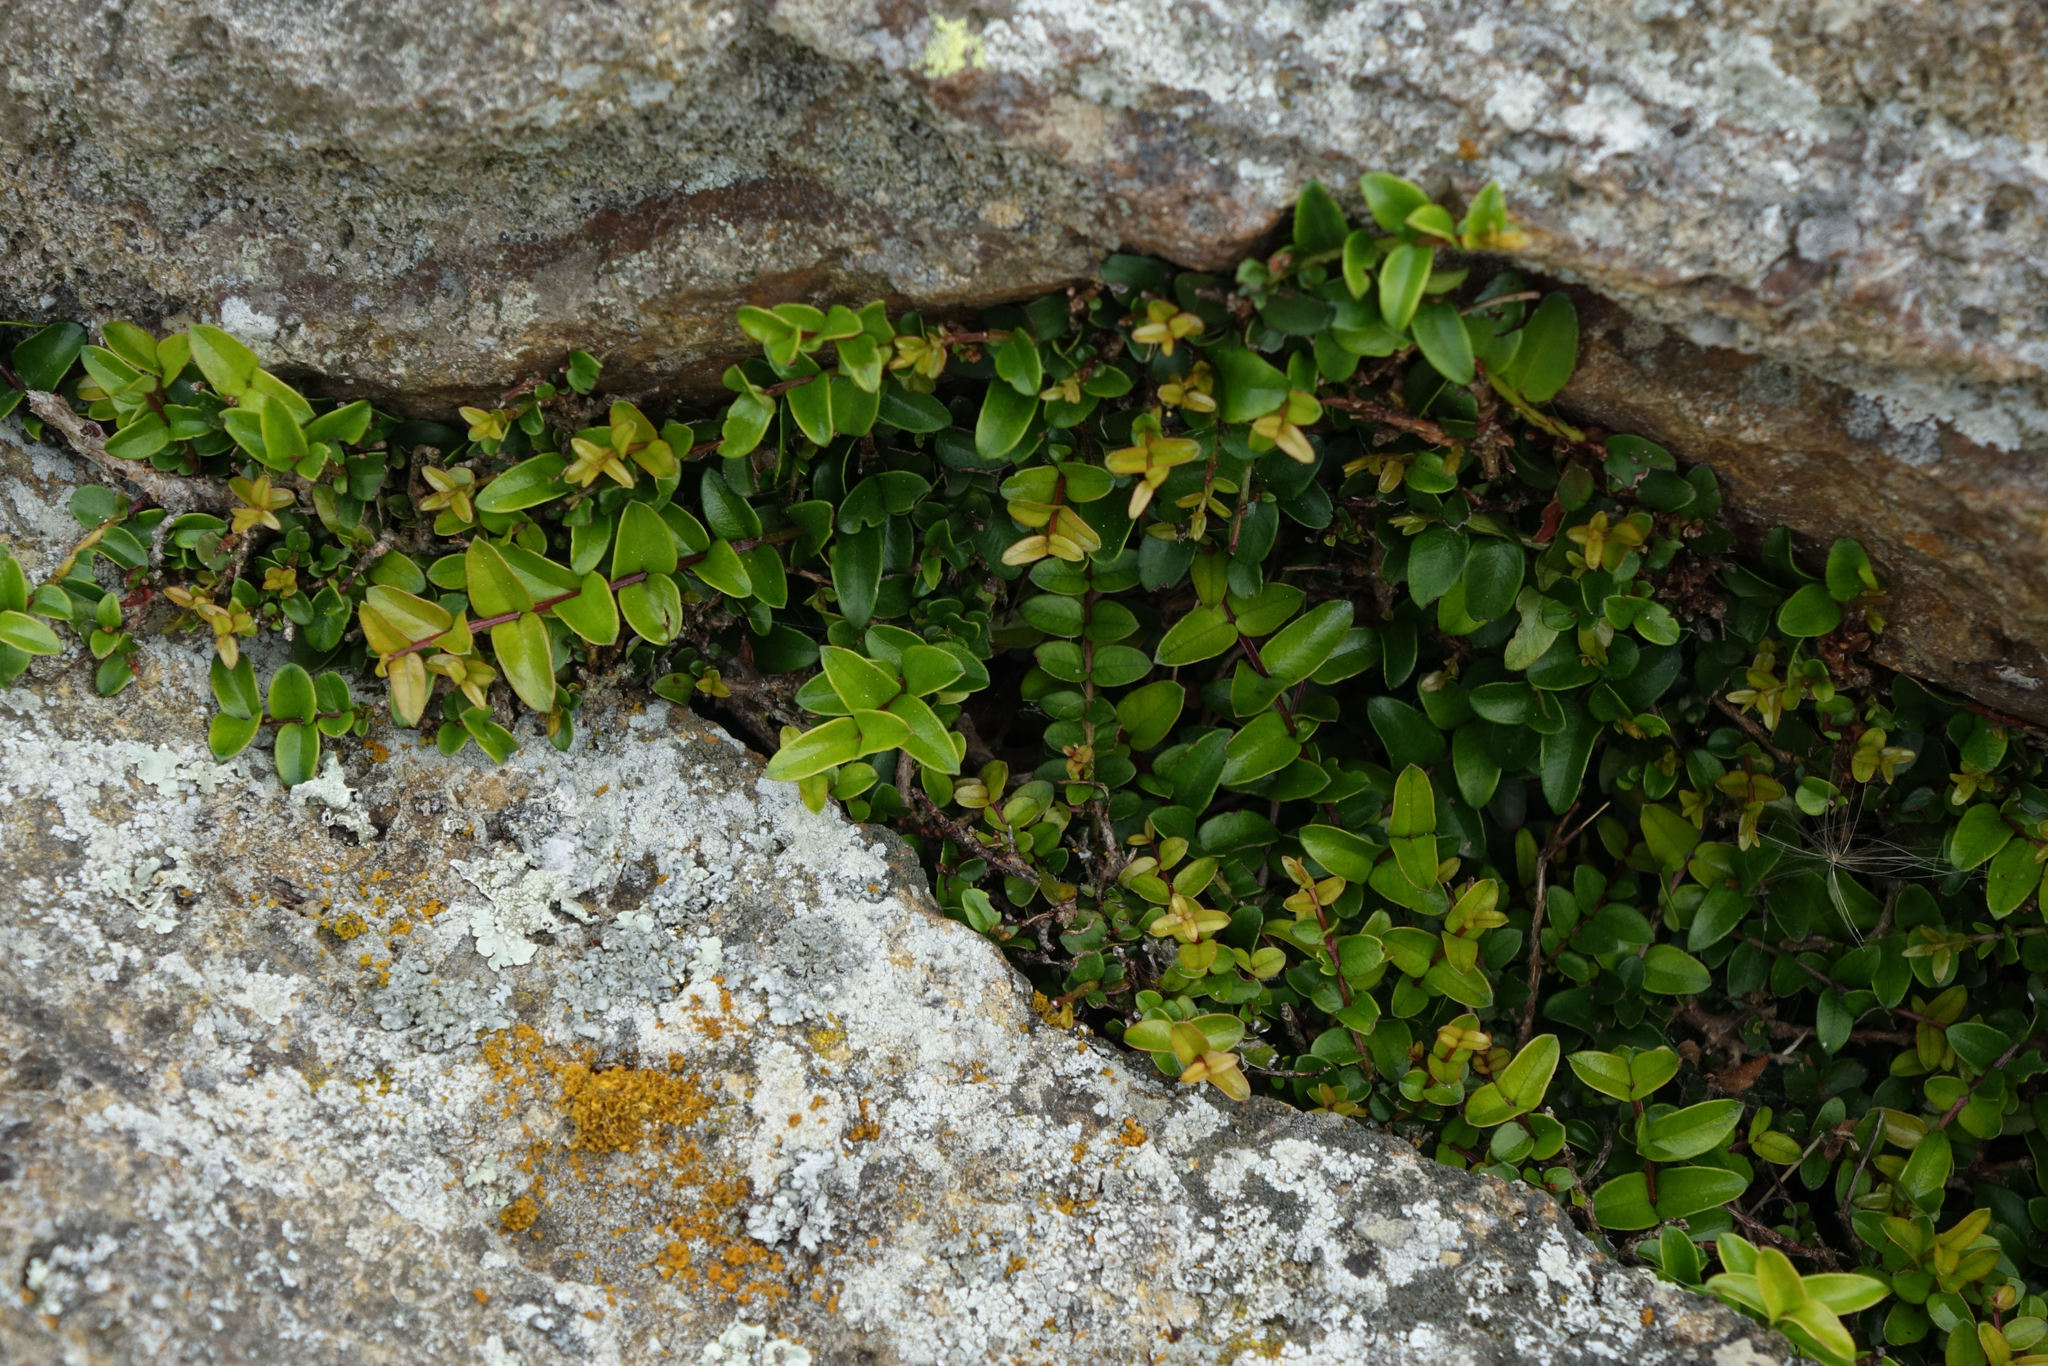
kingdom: Plantae
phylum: Tracheophyta
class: Magnoliopsida
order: Myrtales
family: Myrtaceae
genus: Metrosideros
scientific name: Metrosideros diffusa
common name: Small ratavine
